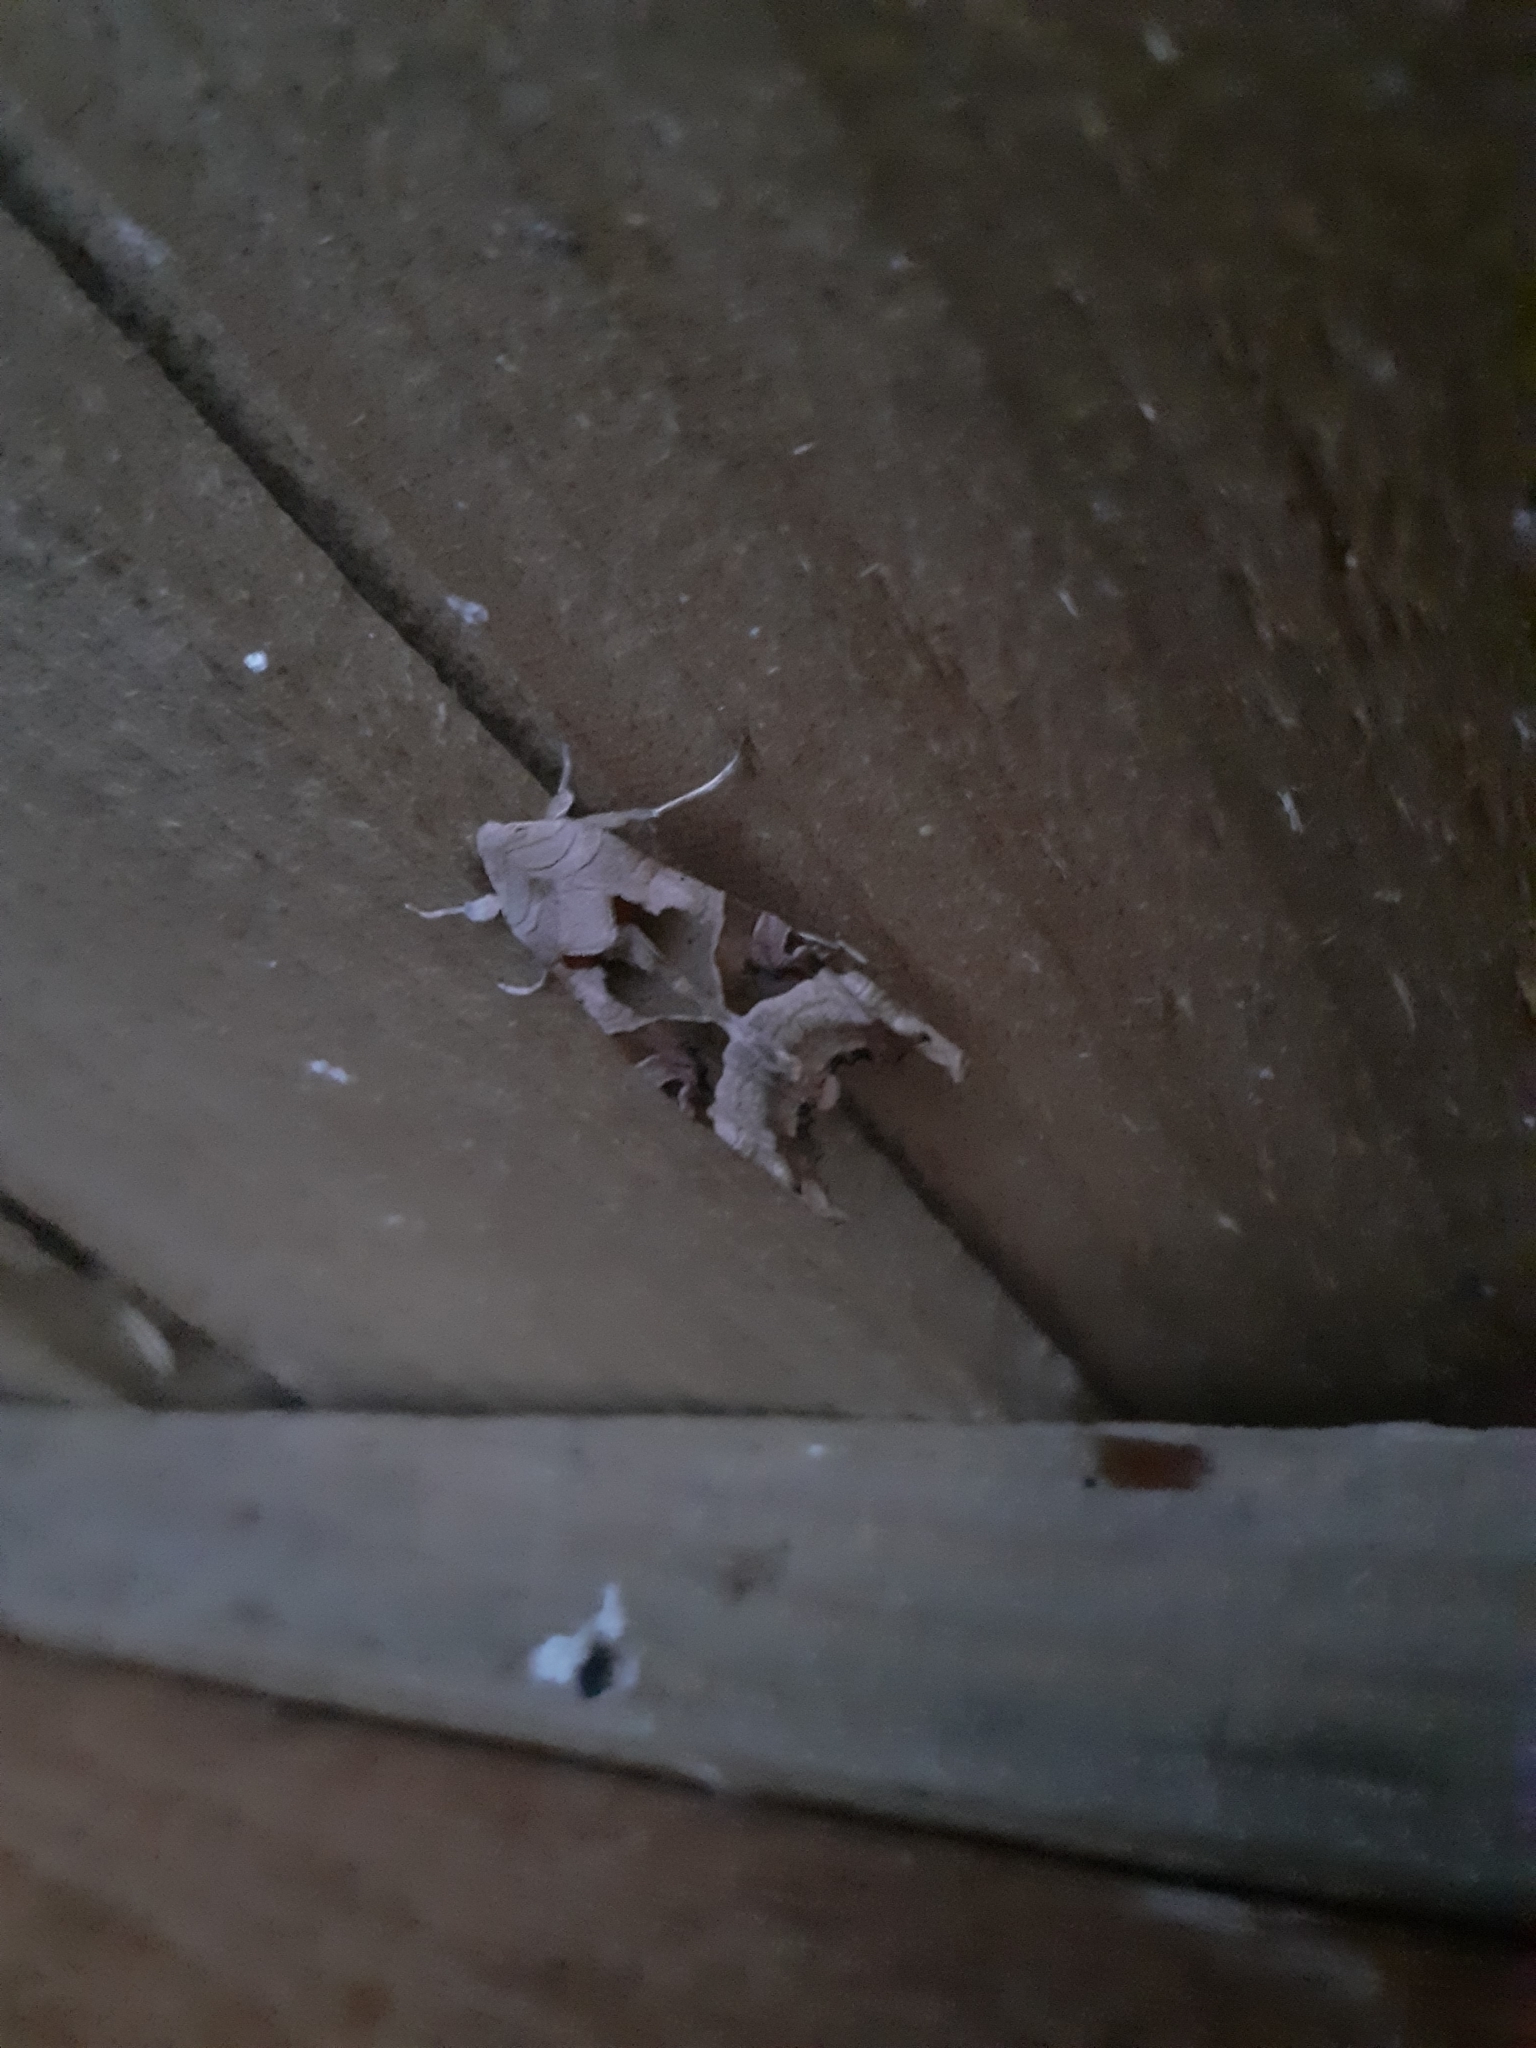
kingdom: Animalia
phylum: Arthropoda
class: Insecta
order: Lepidoptera
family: Noctuidae
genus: Phlogophora
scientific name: Phlogophora meticulosa
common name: Angle shades
